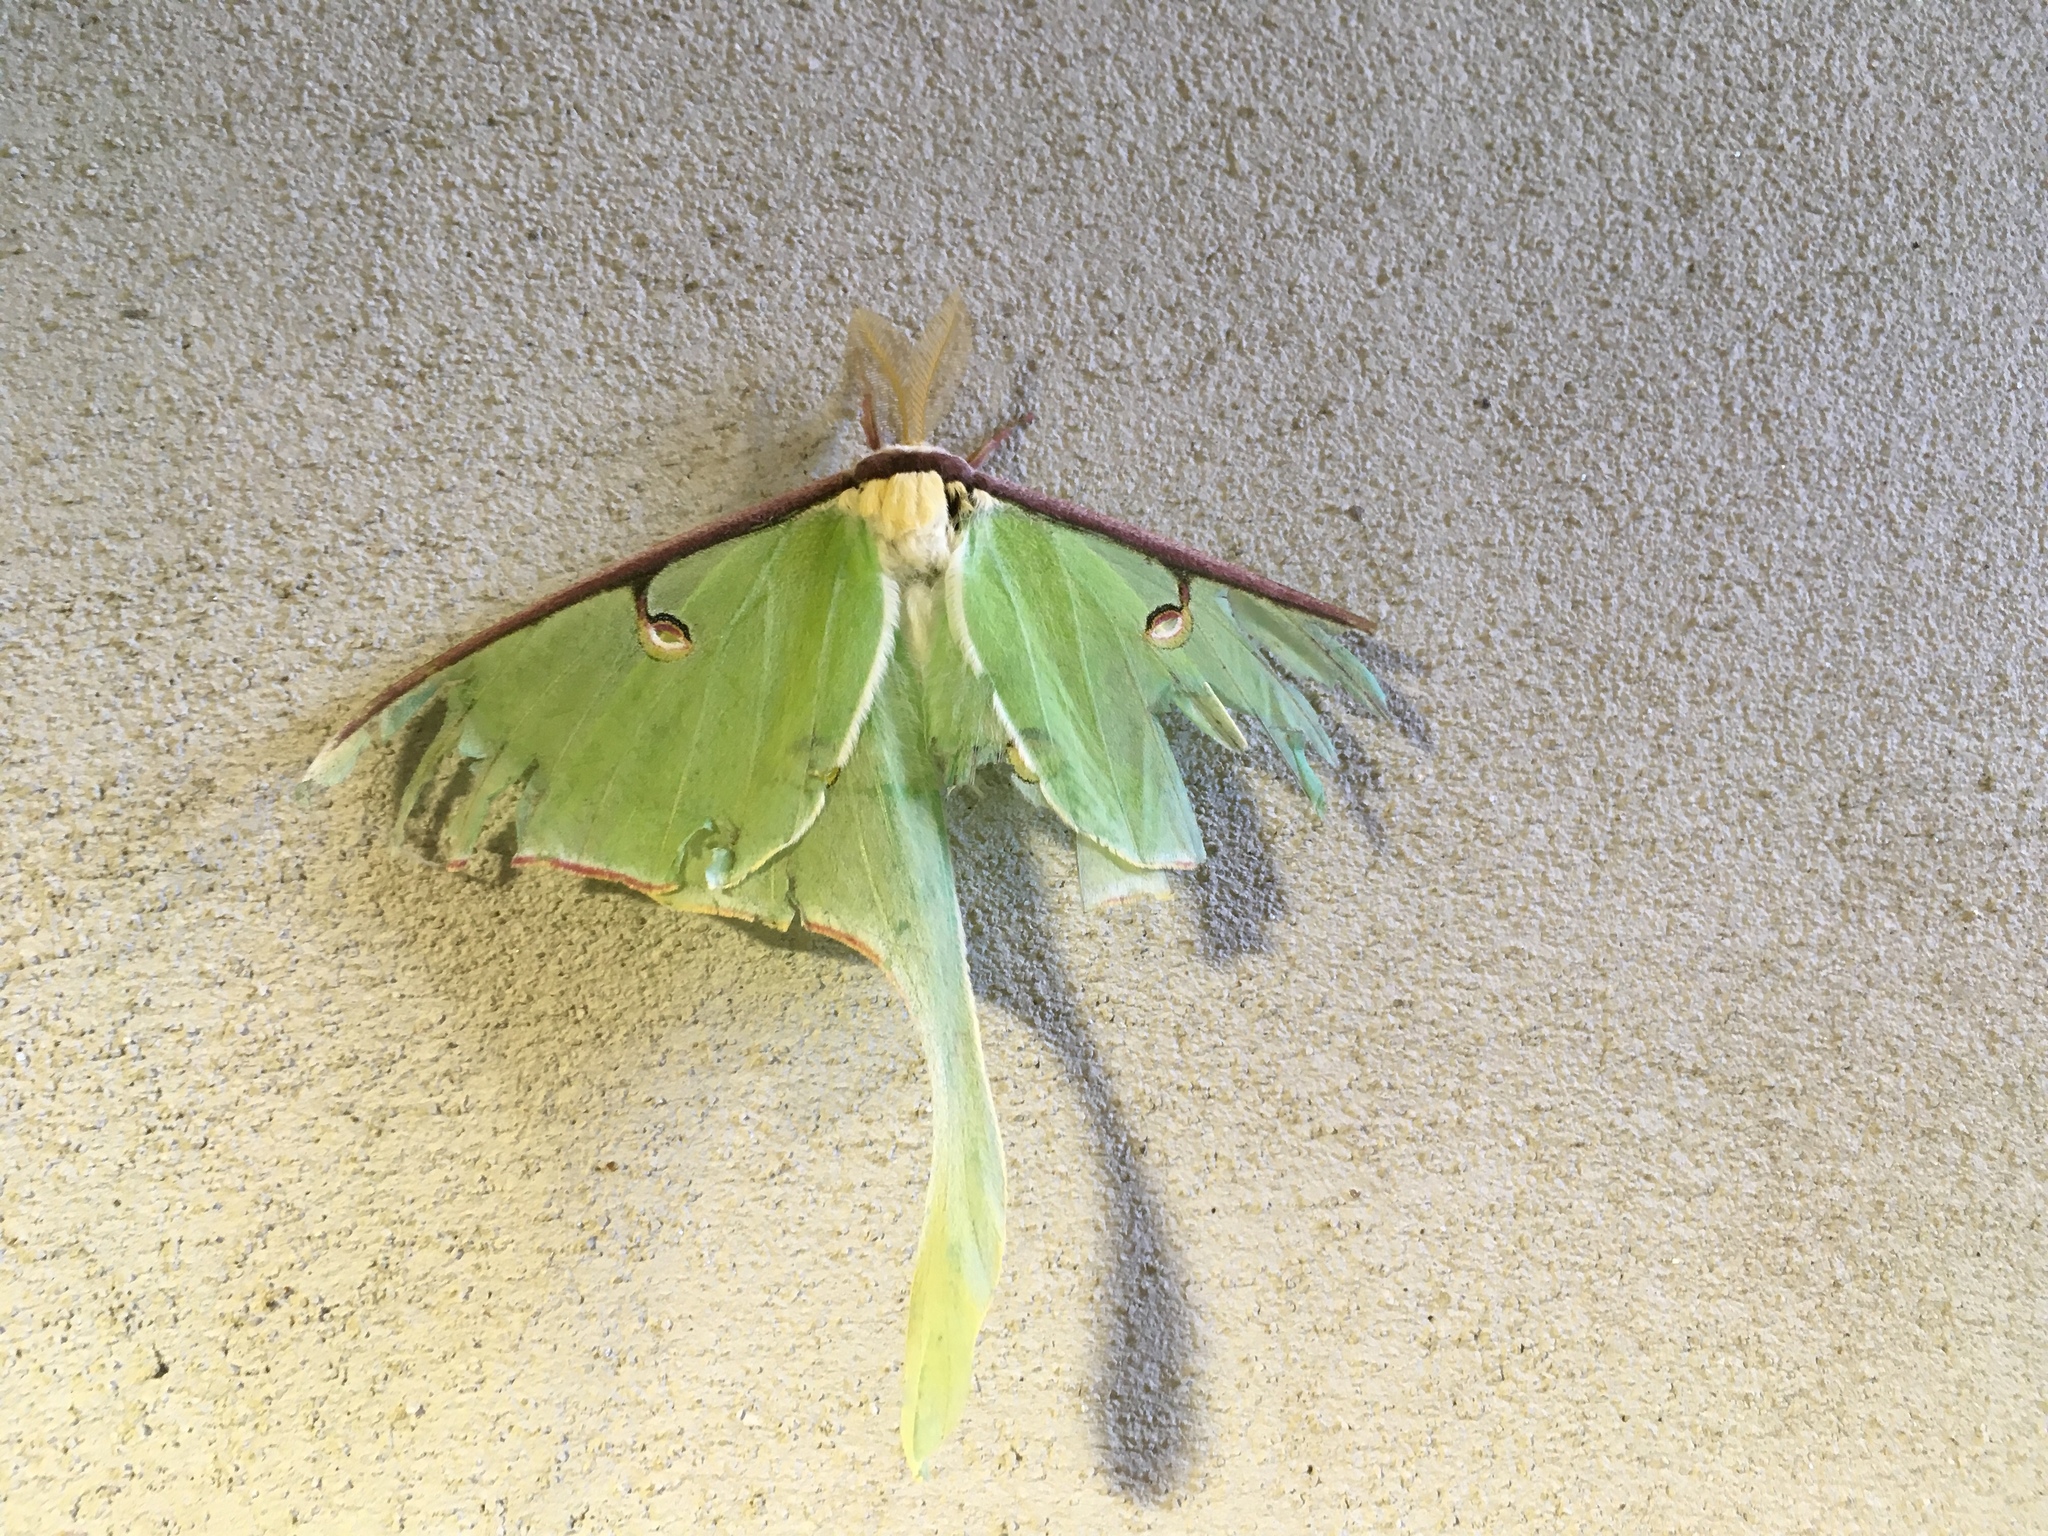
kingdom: Animalia
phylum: Arthropoda
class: Insecta
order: Lepidoptera
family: Saturniidae
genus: Actias
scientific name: Actias luna
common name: Luna moth
